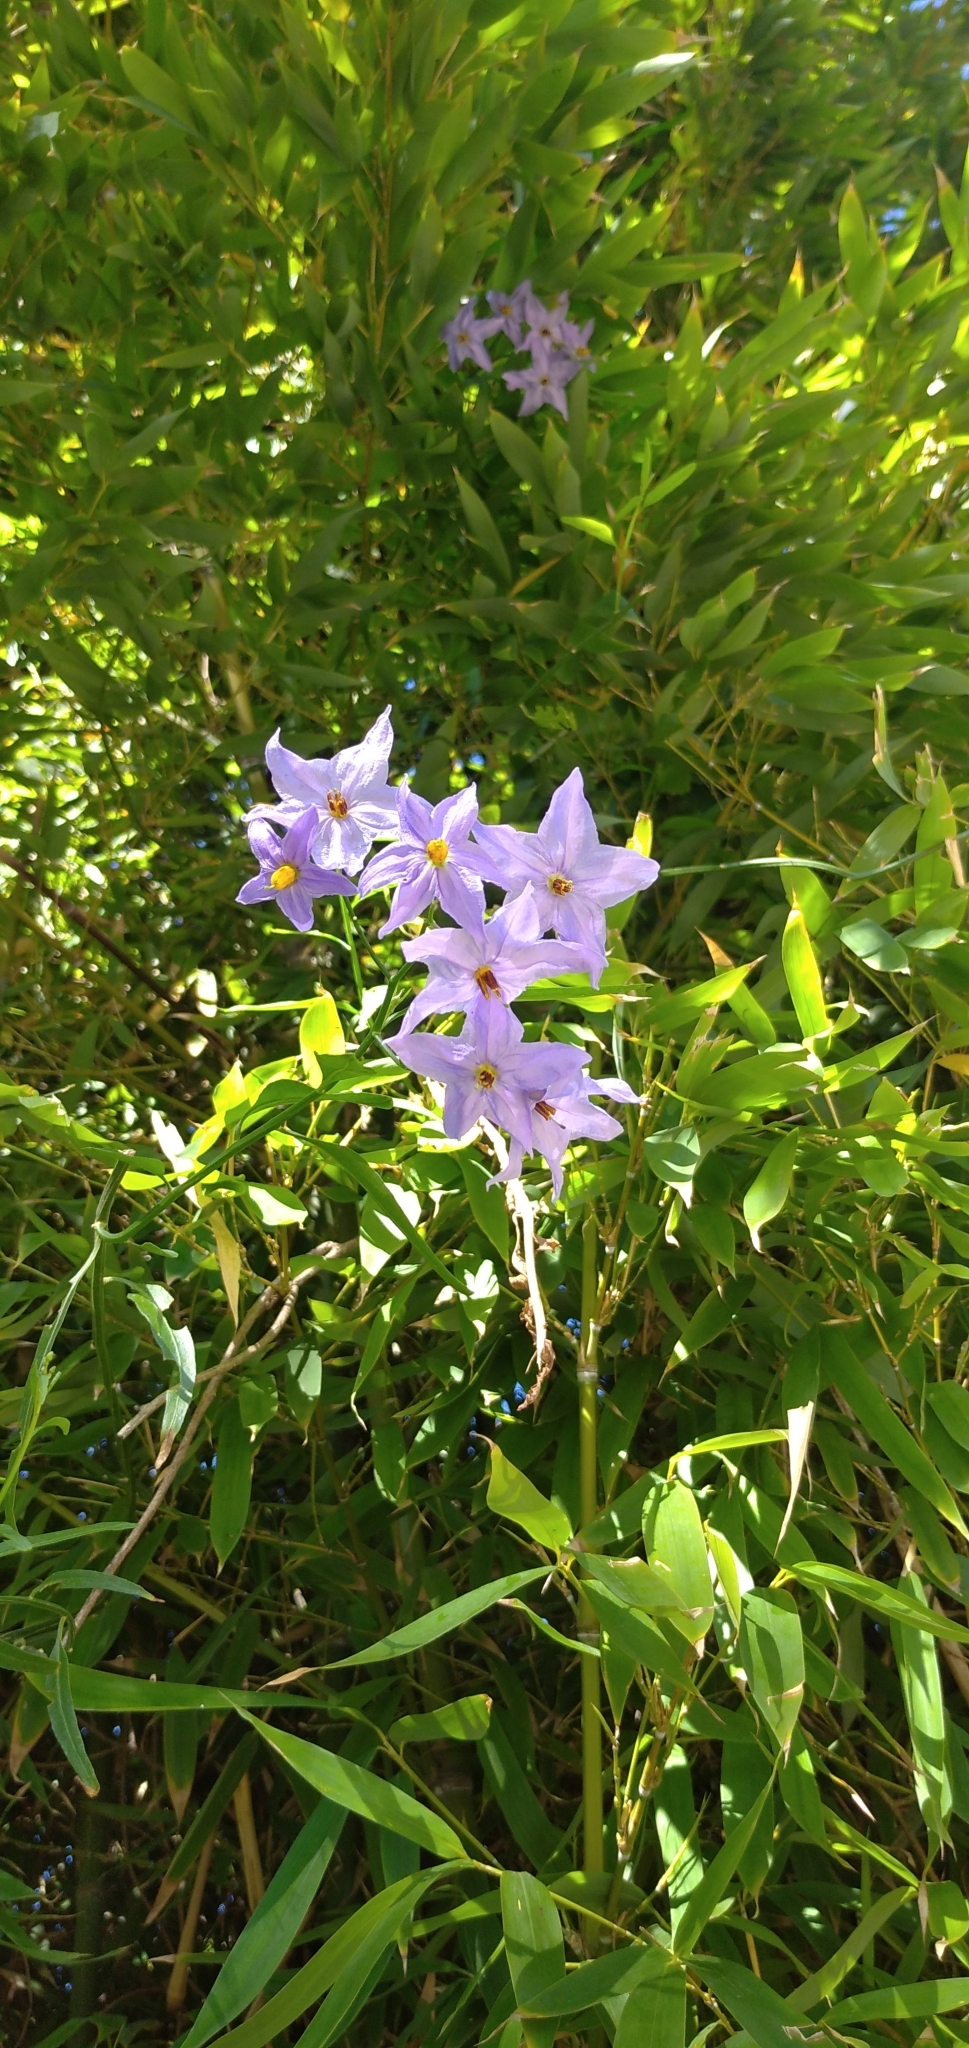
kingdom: Plantae
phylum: Tracheophyta
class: Magnoliopsida
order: Solanales
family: Solanaceae
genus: Solanum
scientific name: Solanum amygdalifolium
